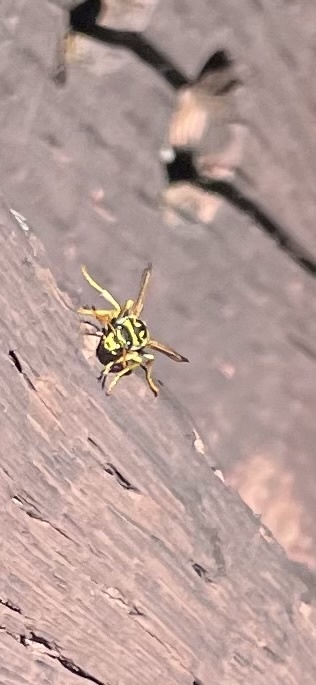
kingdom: Animalia
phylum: Arthropoda
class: Insecta
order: Hymenoptera
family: Eumenidae
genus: Polistes
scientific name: Polistes dominula
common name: Paper wasp
